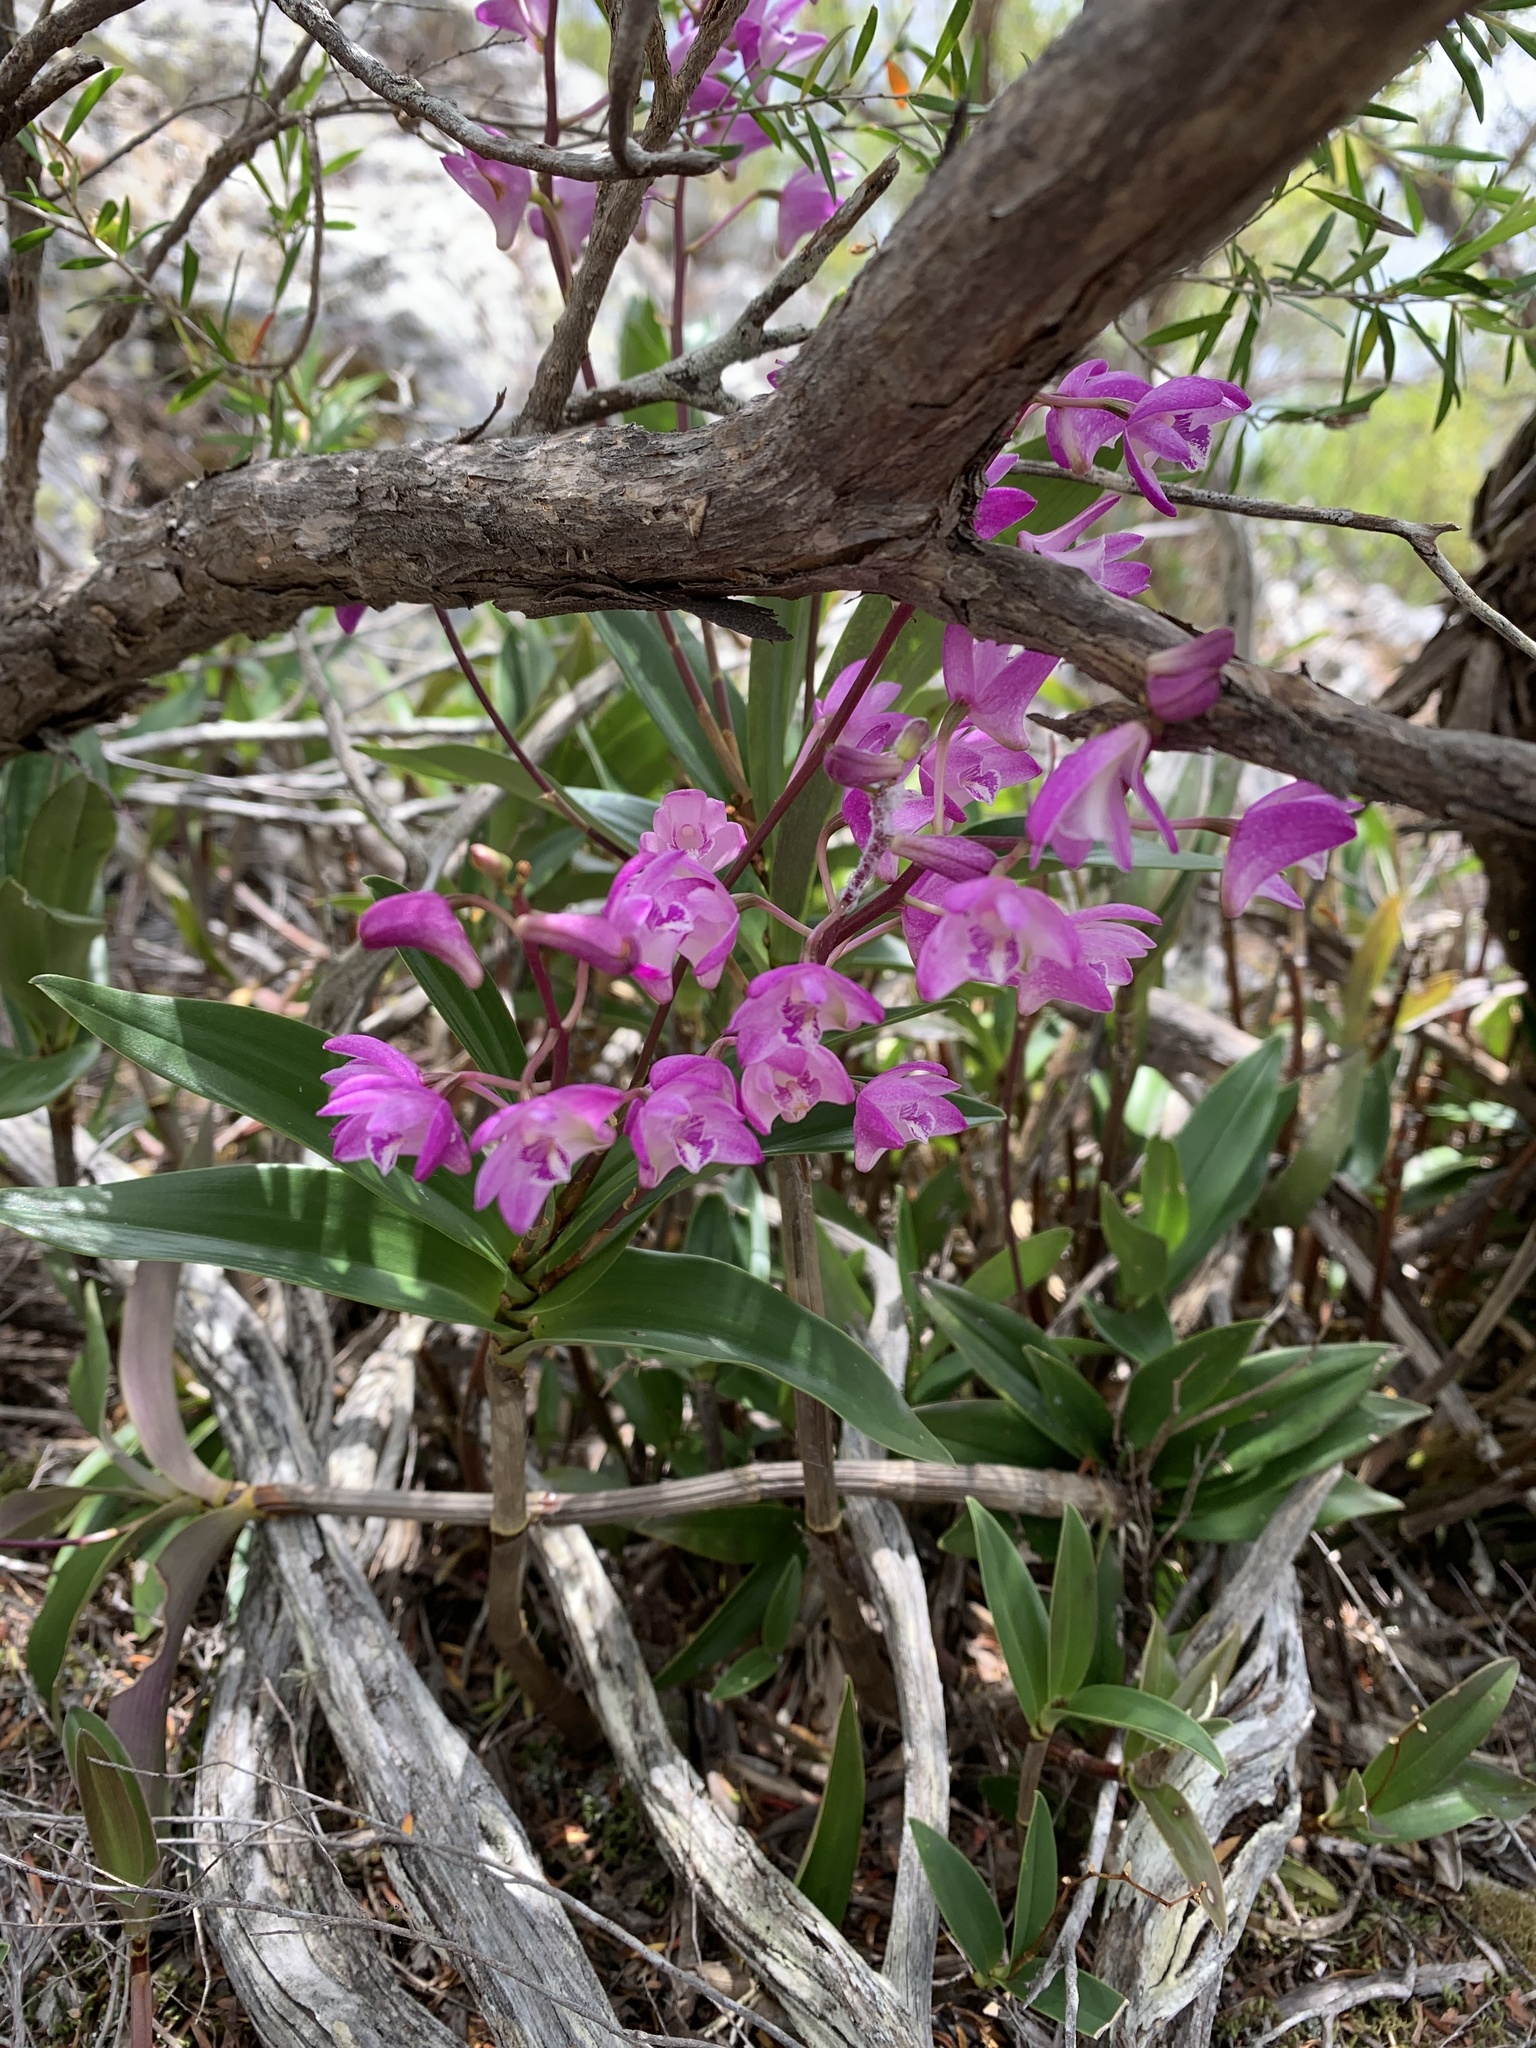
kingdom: Plantae
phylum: Tracheophyta
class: Liliopsida
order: Asparagales
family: Orchidaceae
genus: Dendrobium
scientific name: Dendrobium kingianum
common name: Pink rock orchid
